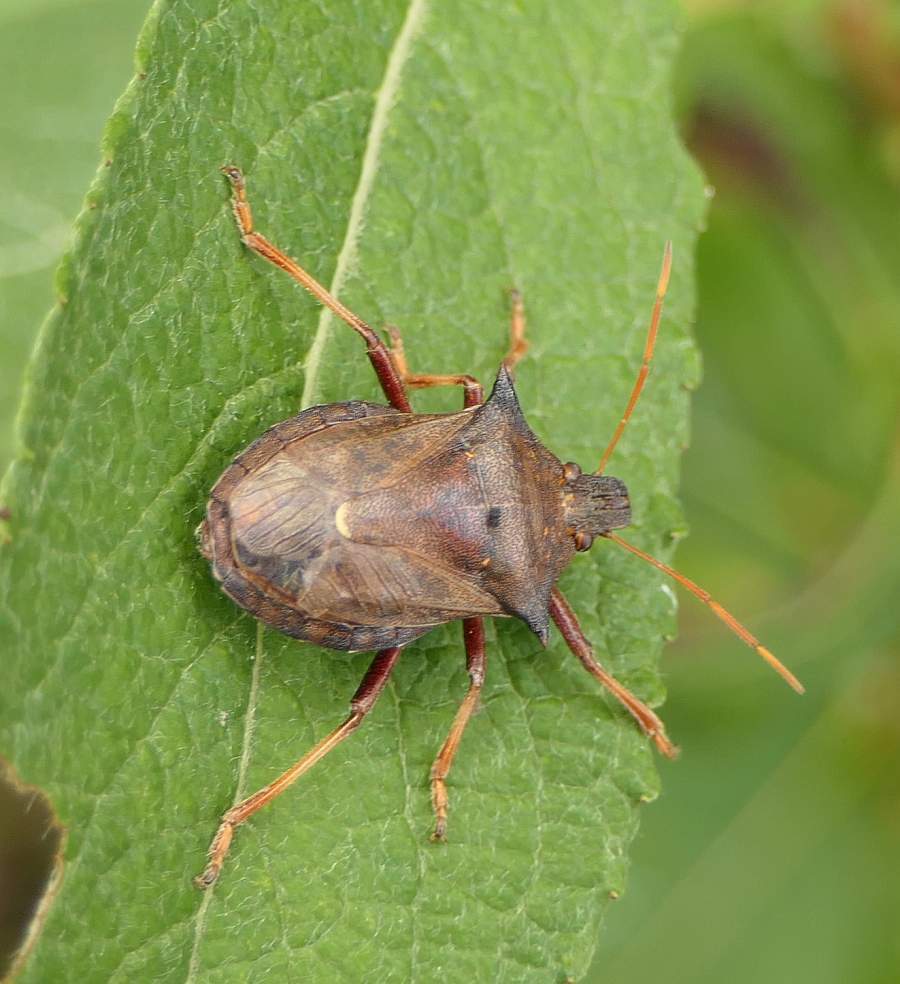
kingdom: Animalia
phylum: Arthropoda
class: Insecta
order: Hemiptera
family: Pentatomidae
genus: Picromerus
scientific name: Picromerus bidens
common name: Spiked shieldbug
